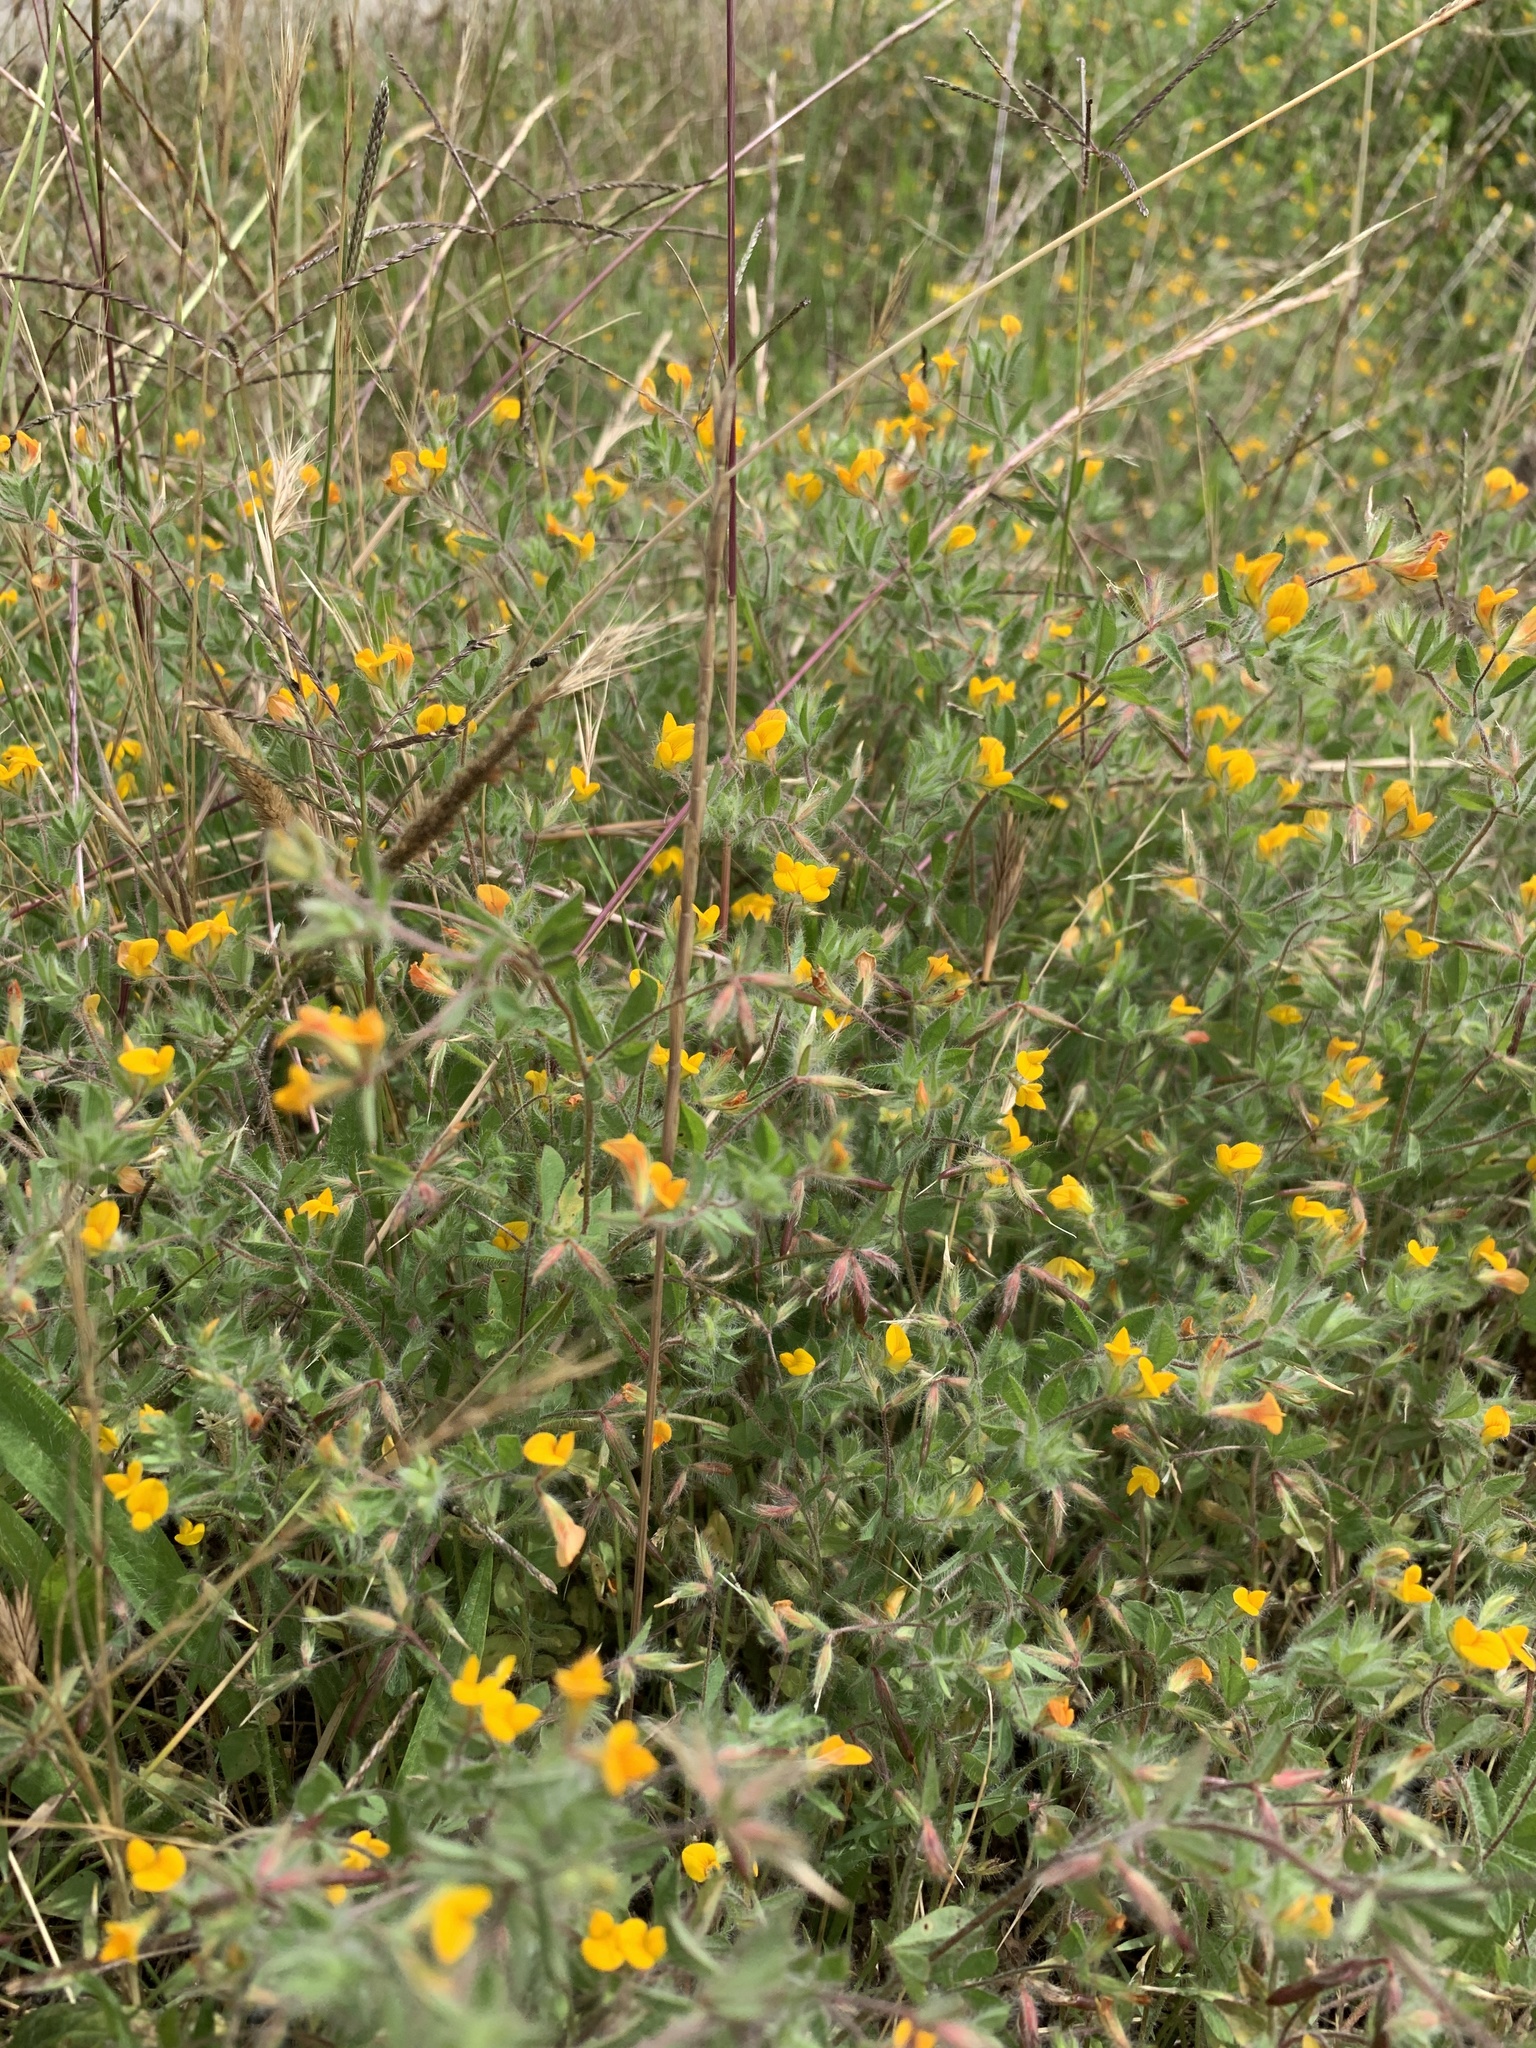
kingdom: Plantae
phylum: Tracheophyta
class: Magnoliopsida
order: Fabales
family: Fabaceae
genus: Lotus
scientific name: Lotus subbiflorus
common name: Hairy bird's-foot trefoil
